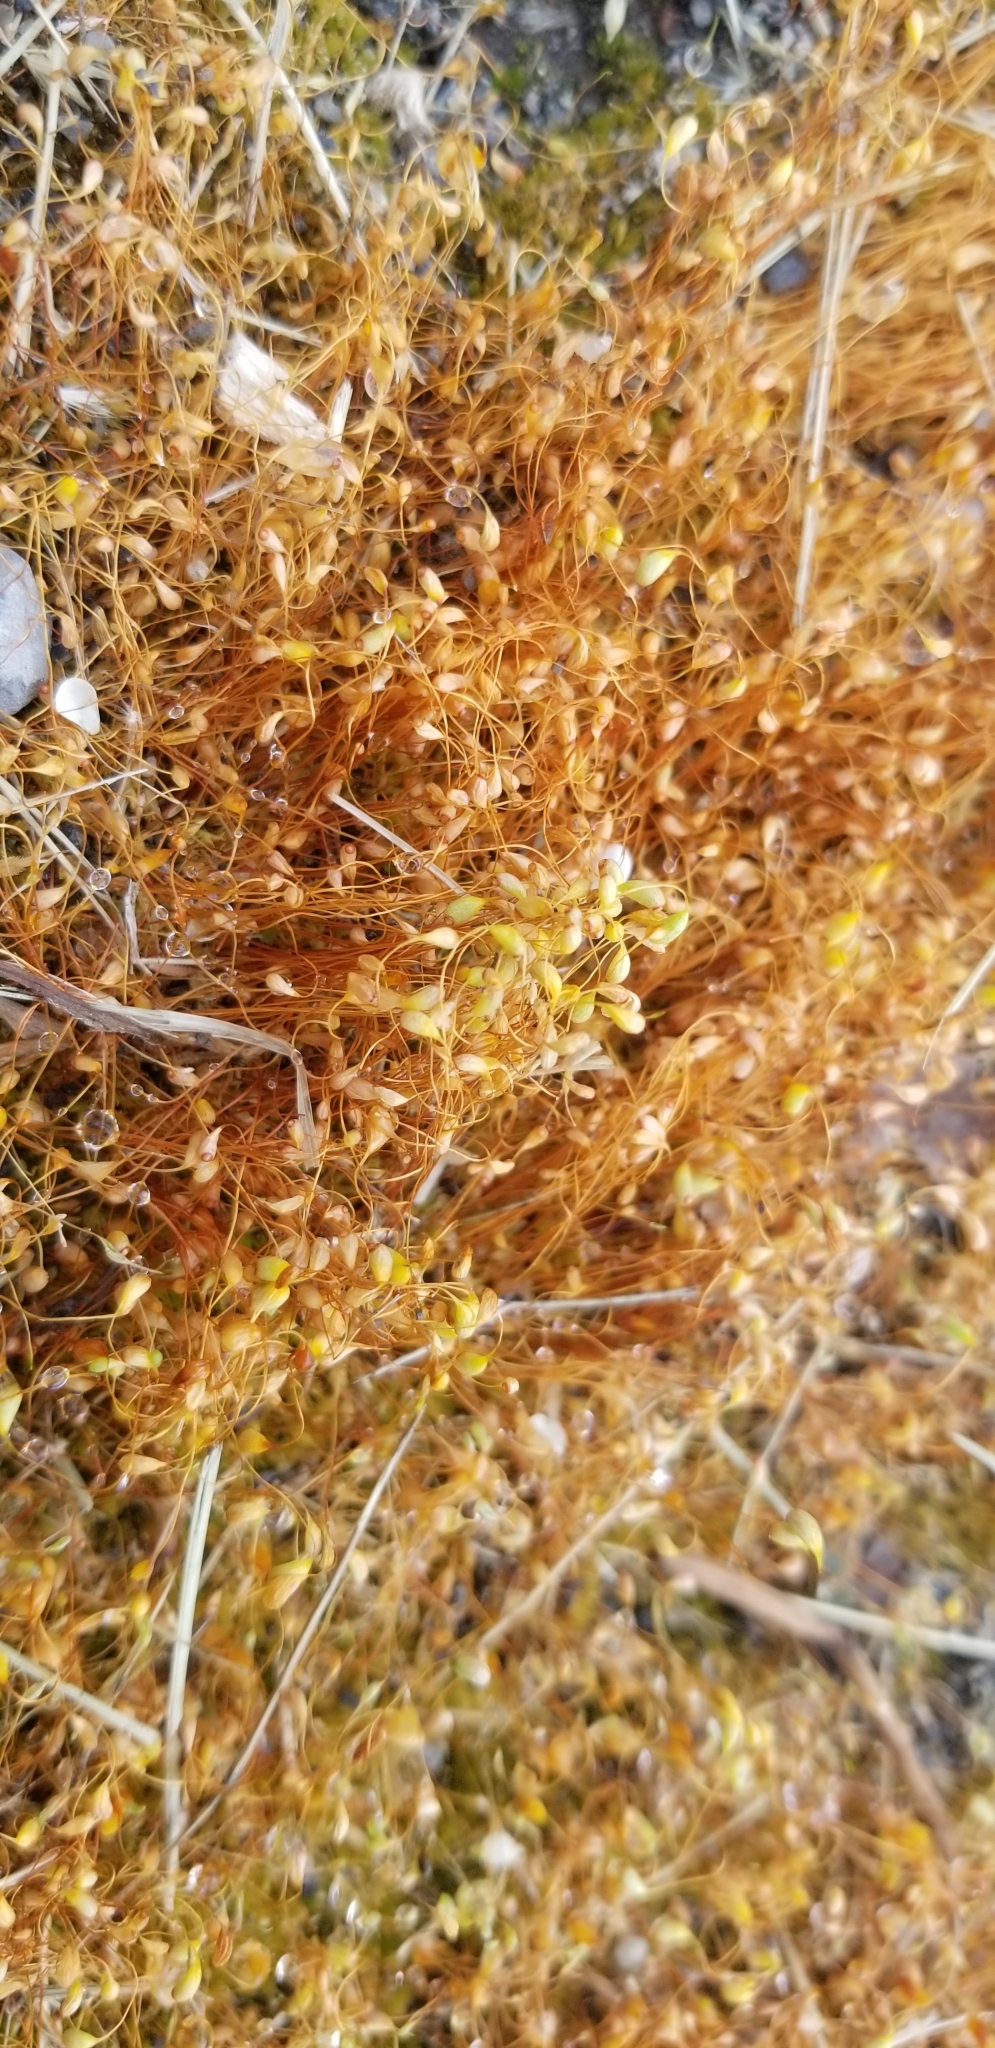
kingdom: Plantae
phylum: Bryophyta
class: Bryopsida
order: Funariales
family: Funariaceae
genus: Funaria
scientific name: Funaria hygrometrica
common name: Common cord moss
